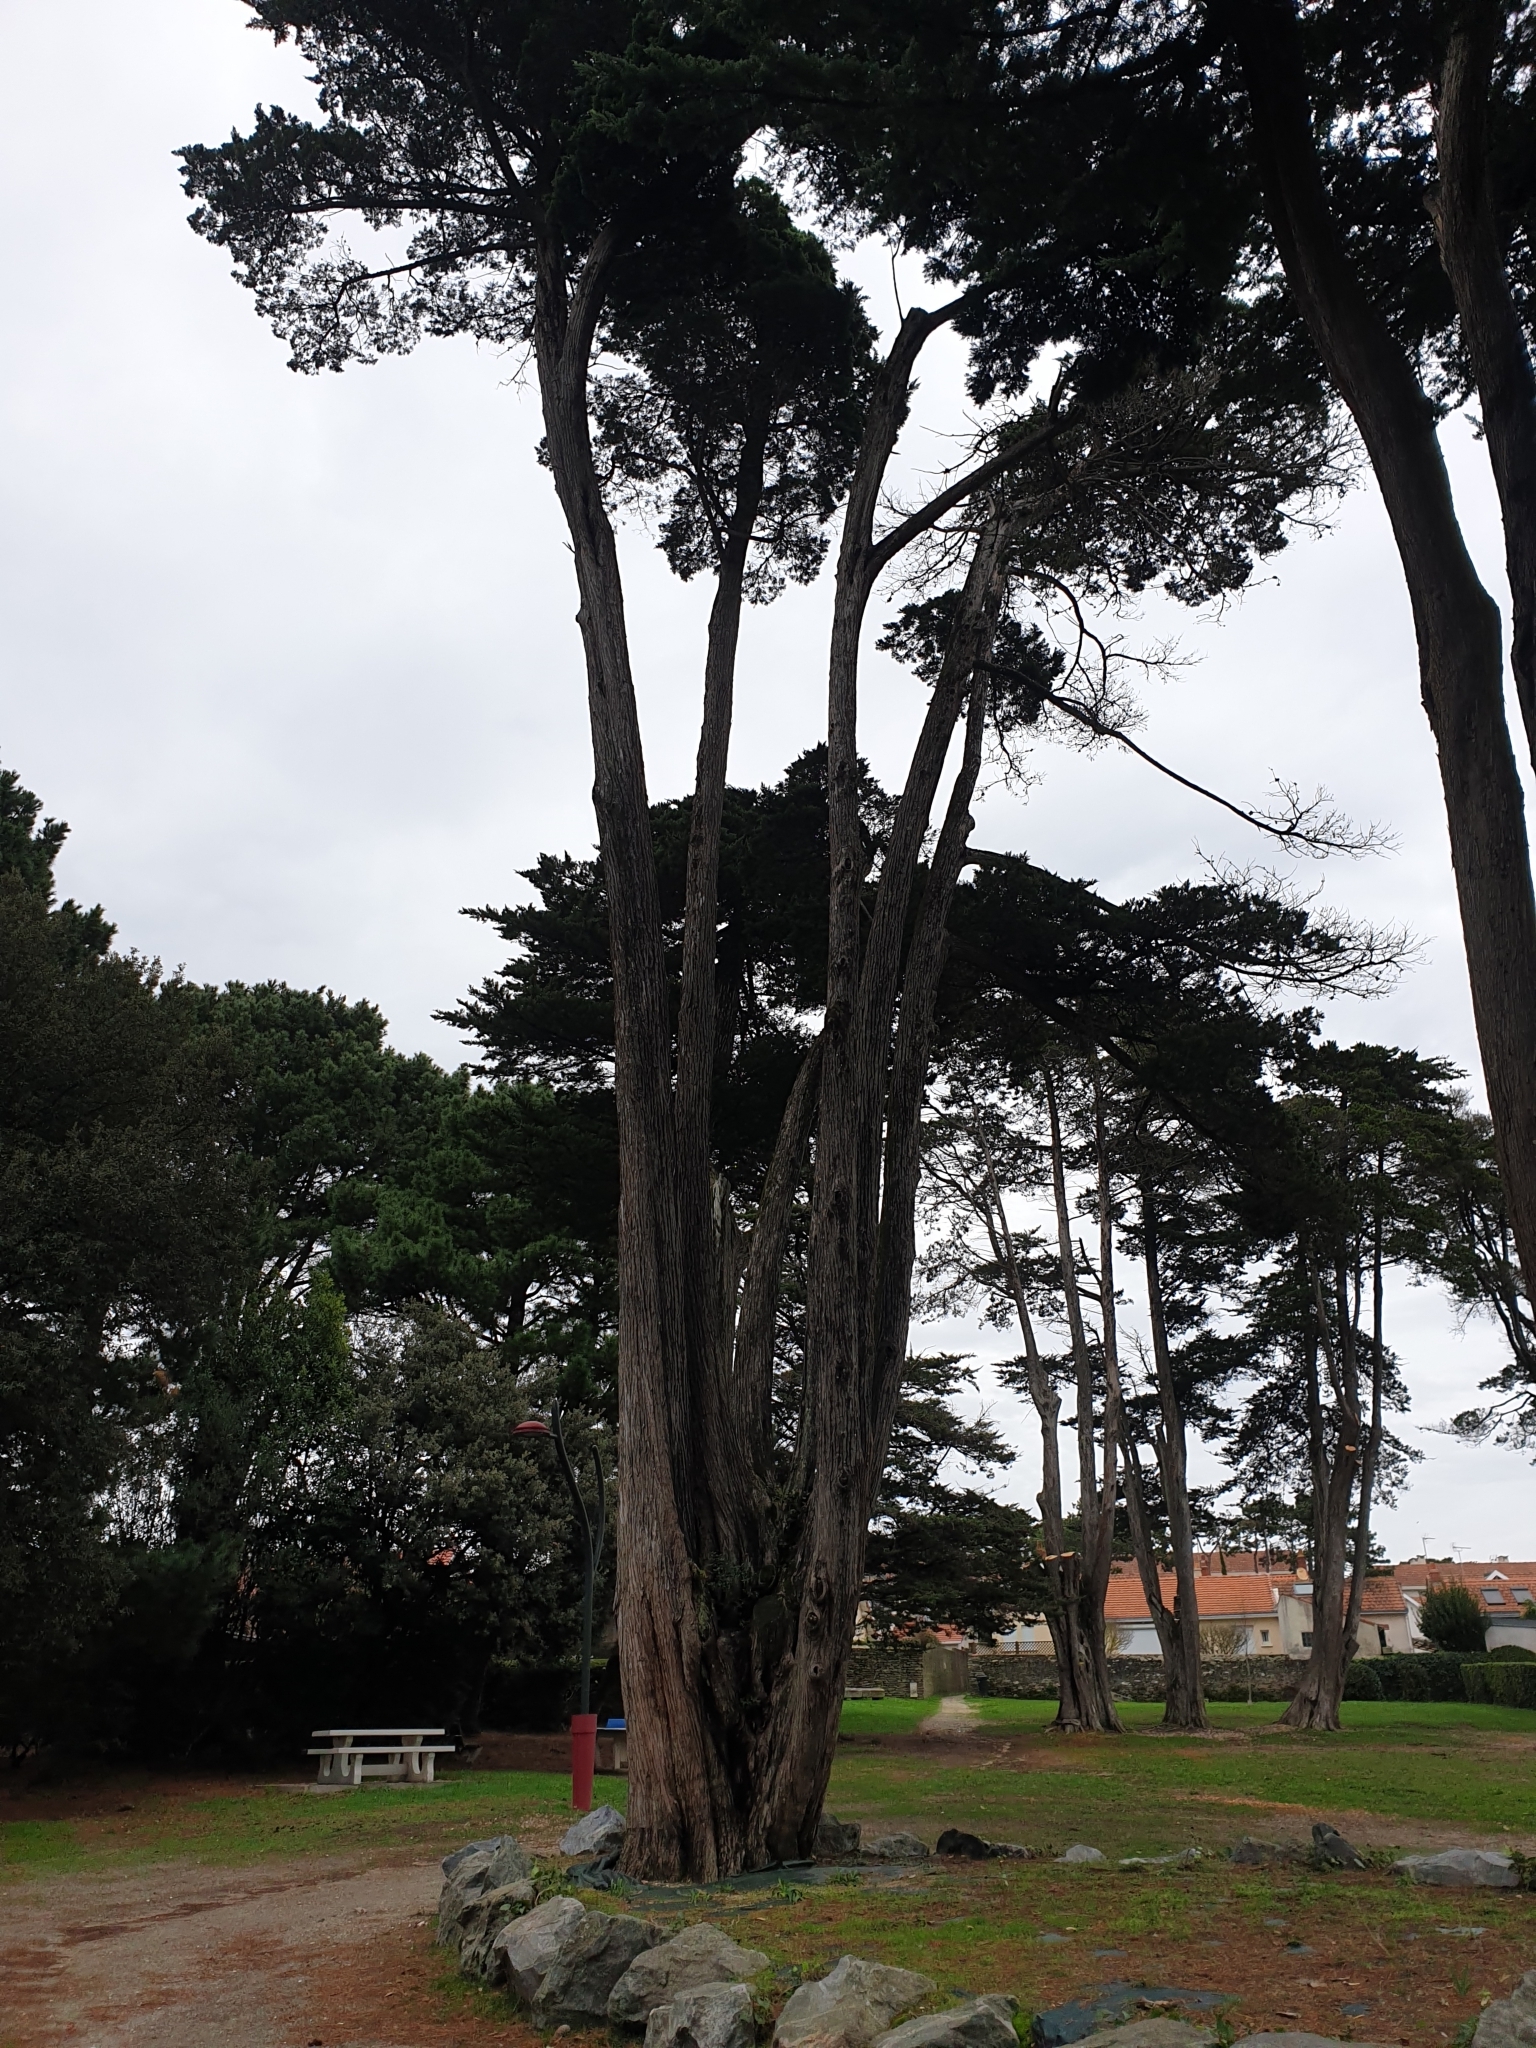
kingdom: Plantae
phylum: Tracheophyta
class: Polypodiopsida
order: Polypodiales
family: Dryopteridaceae
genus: Polystichum
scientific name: Polystichum setiferum
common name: Soft shield-fern
